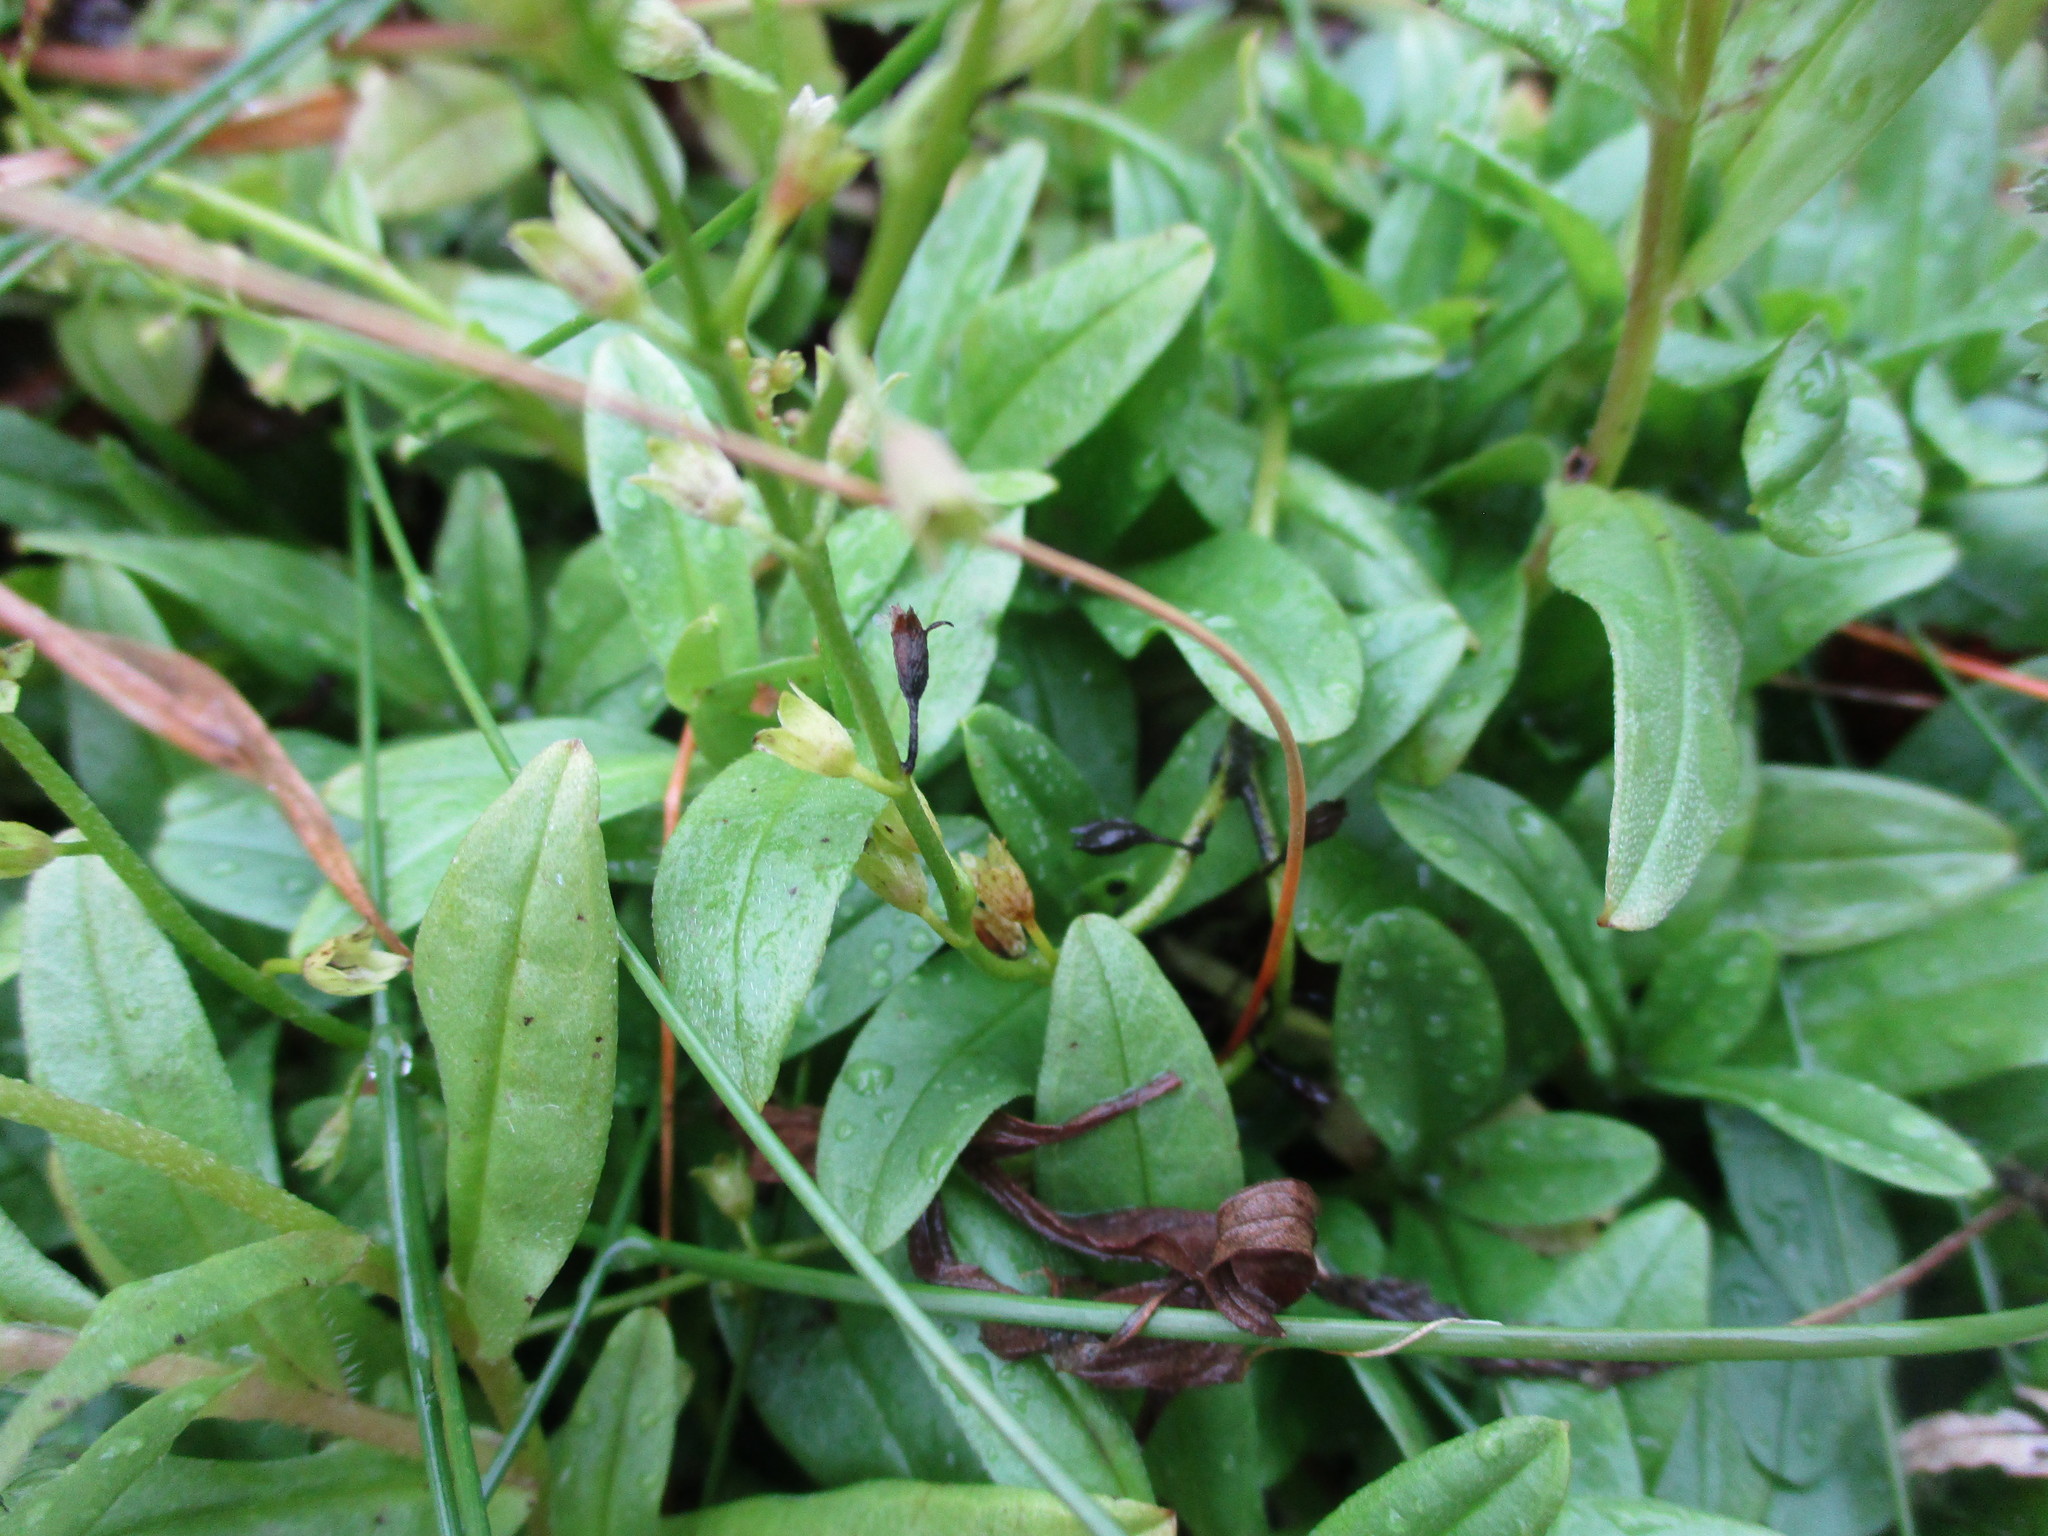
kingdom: Plantae
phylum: Tracheophyta
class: Magnoliopsida
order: Boraginales
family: Boraginaceae
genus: Myosotis
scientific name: Myosotis scorpioides
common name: Water forget-me-not
